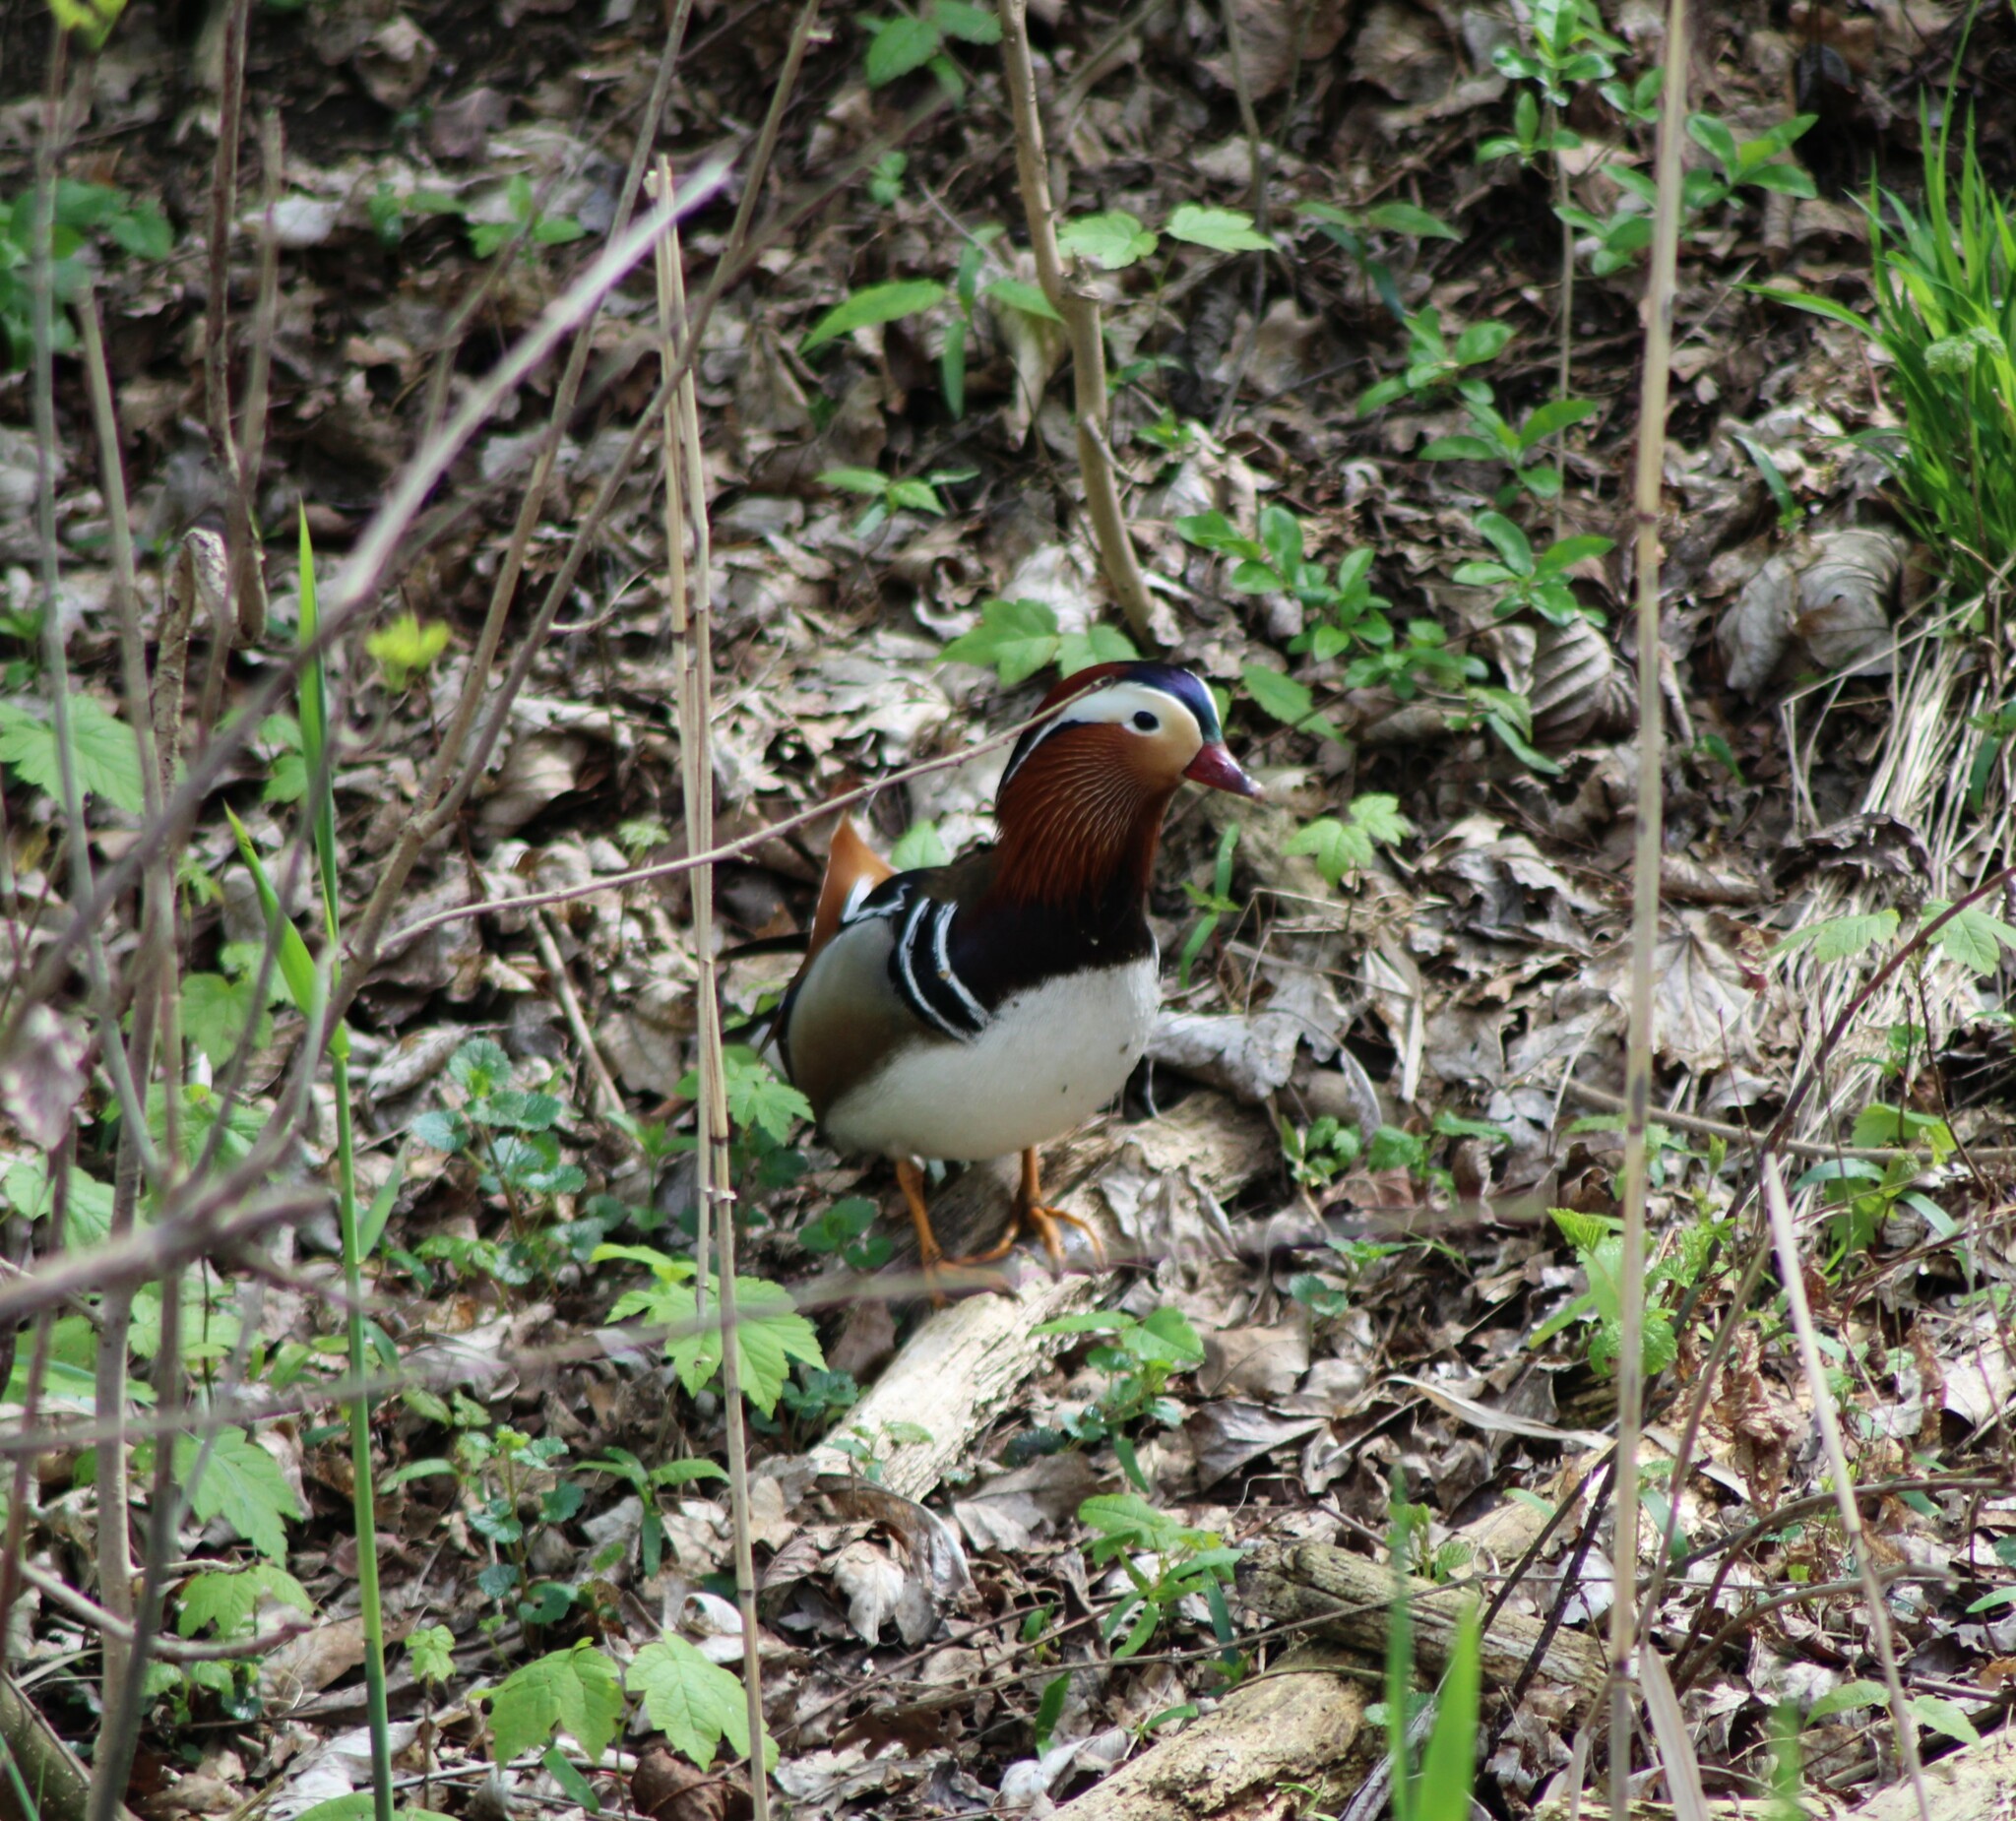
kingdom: Animalia
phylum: Chordata
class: Aves
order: Anseriformes
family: Anatidae
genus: Aix
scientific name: Aix galericulata
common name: Mandarin duck
